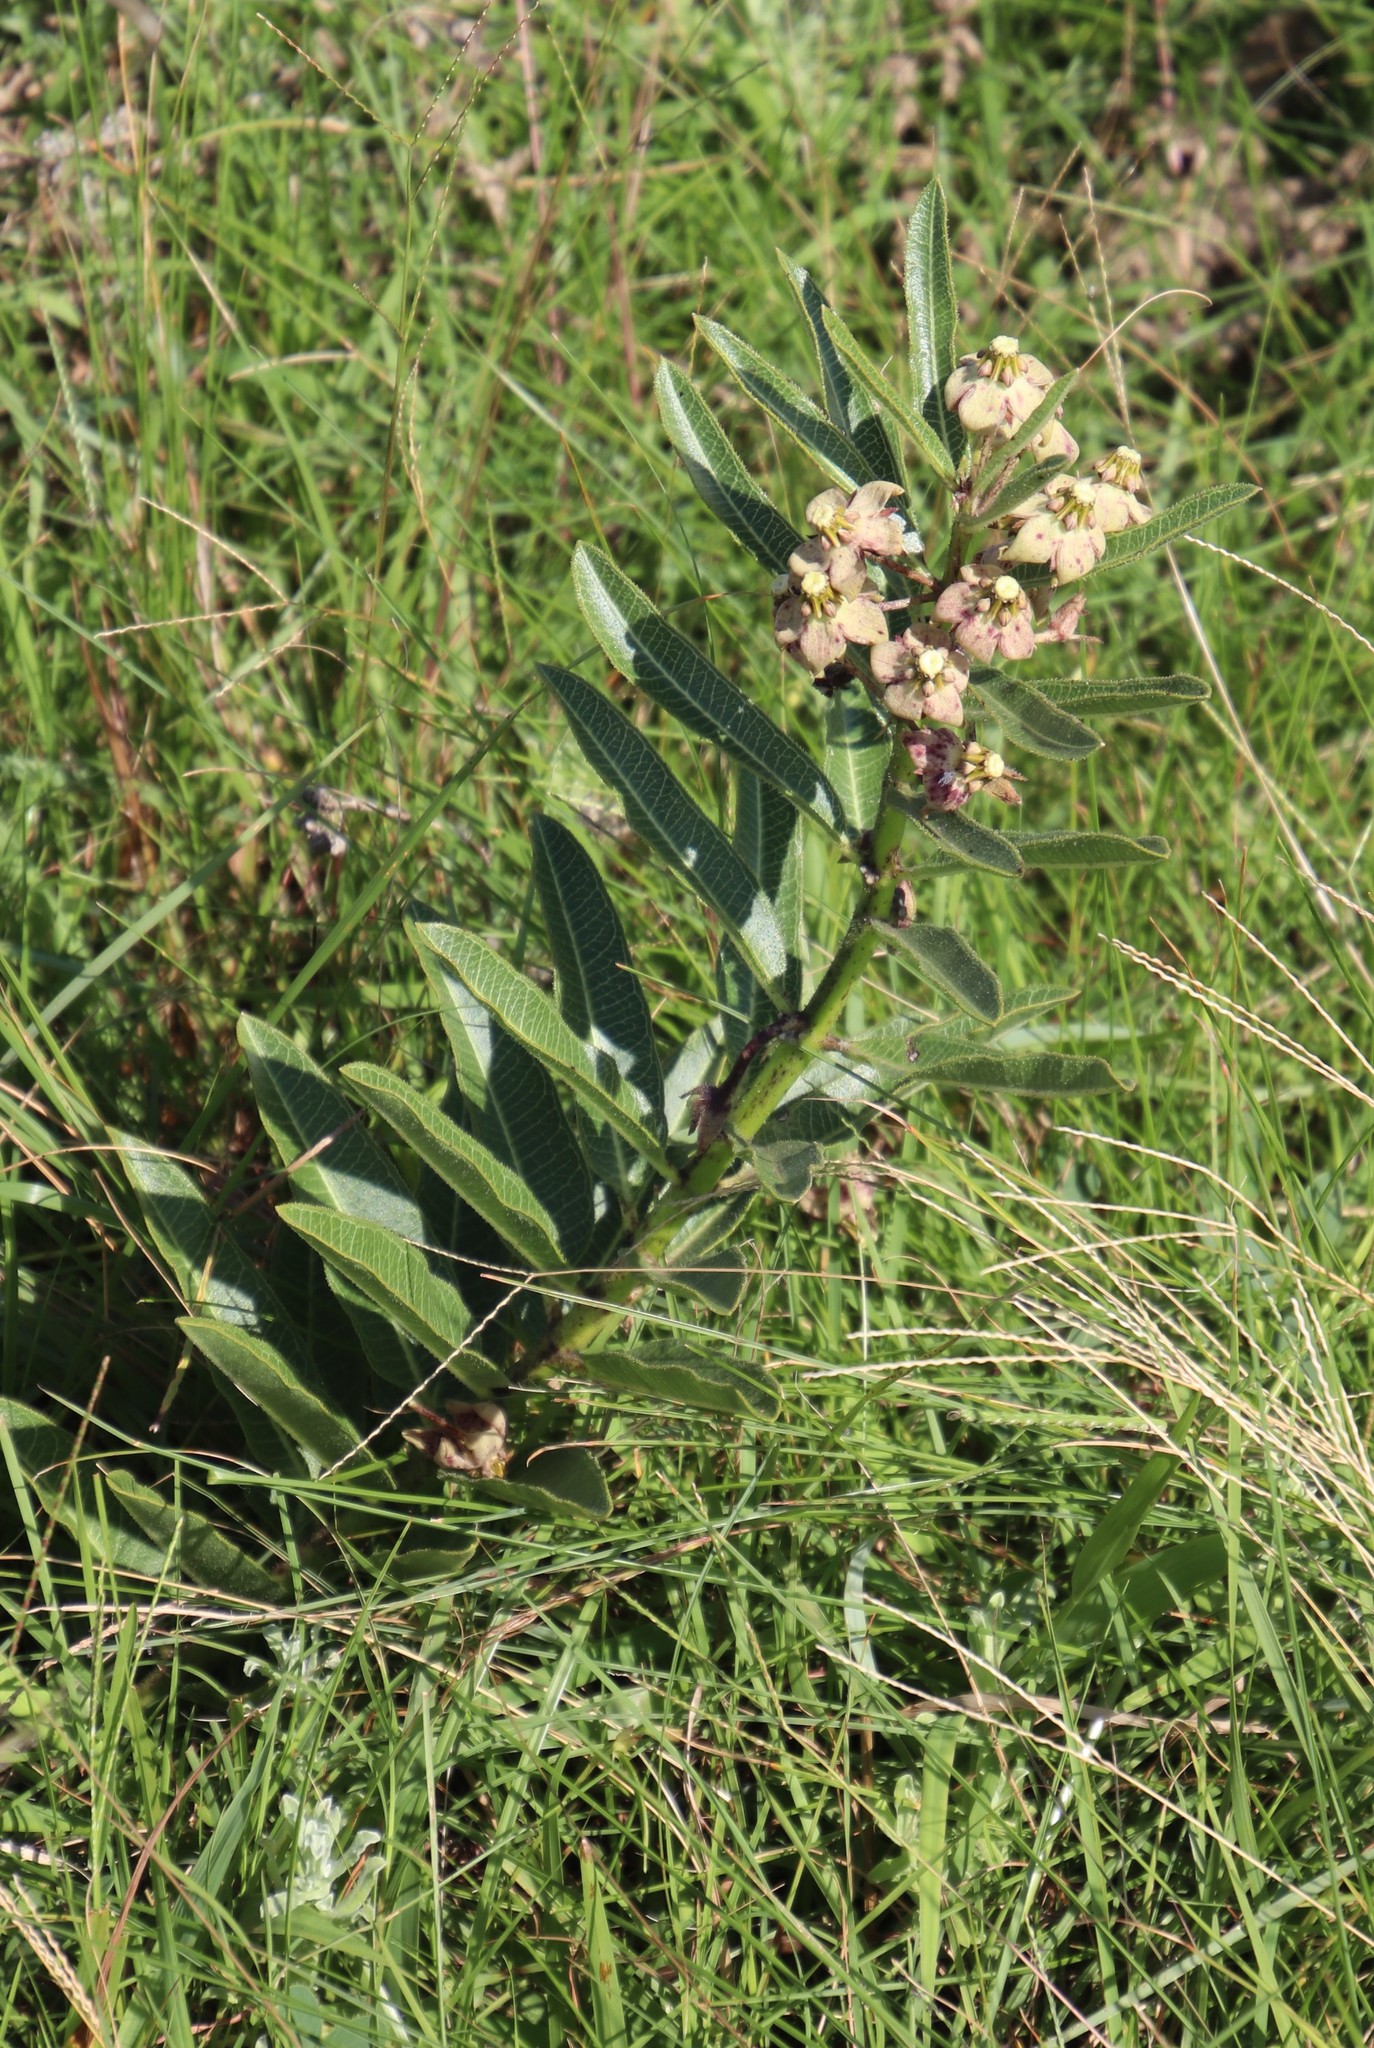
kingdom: Plantae
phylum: Tracheophyta
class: Magnoliopsida
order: Gentianales
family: Apocynaceae
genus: Pachycarpus
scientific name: Pachycarpus asperifolius
